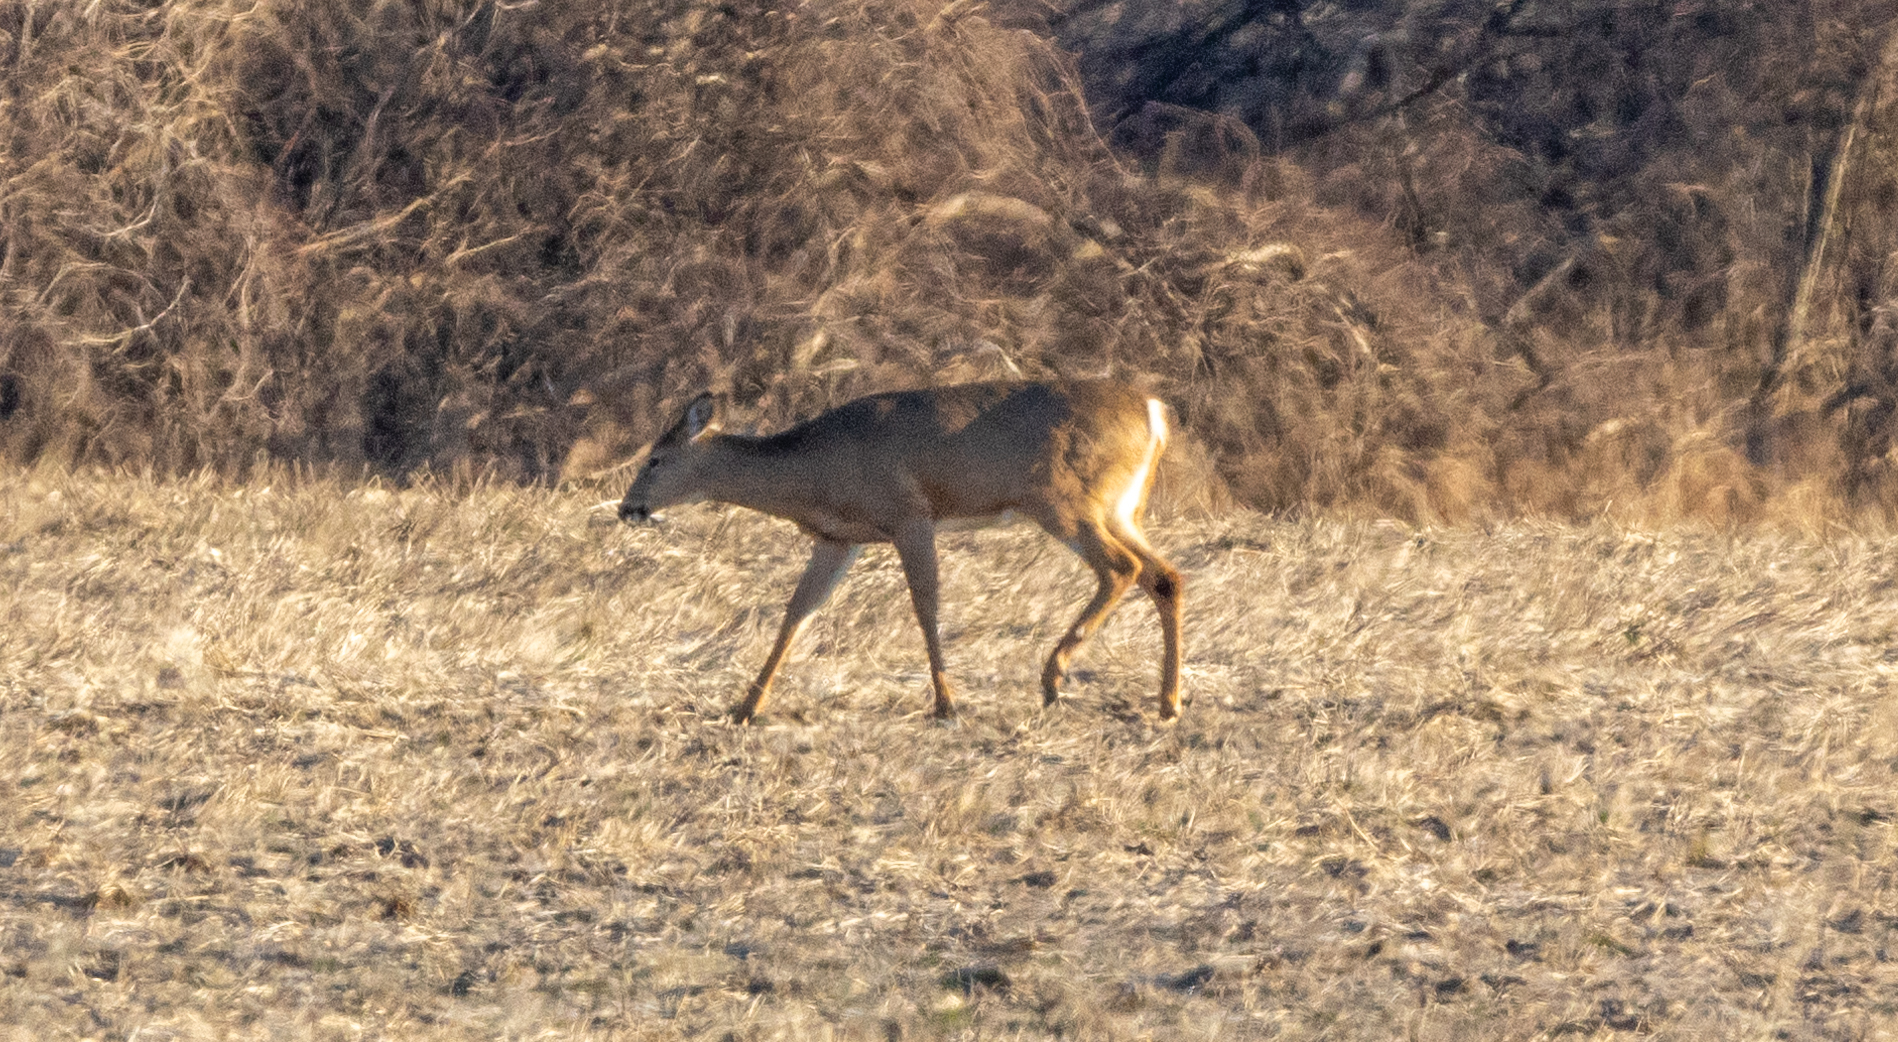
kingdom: Animalia
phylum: Chordata
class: Mammalia
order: Artiodactyla
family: Cervidae
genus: Odocoileus
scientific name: Odocoileus virginianus
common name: White-tailed deer
